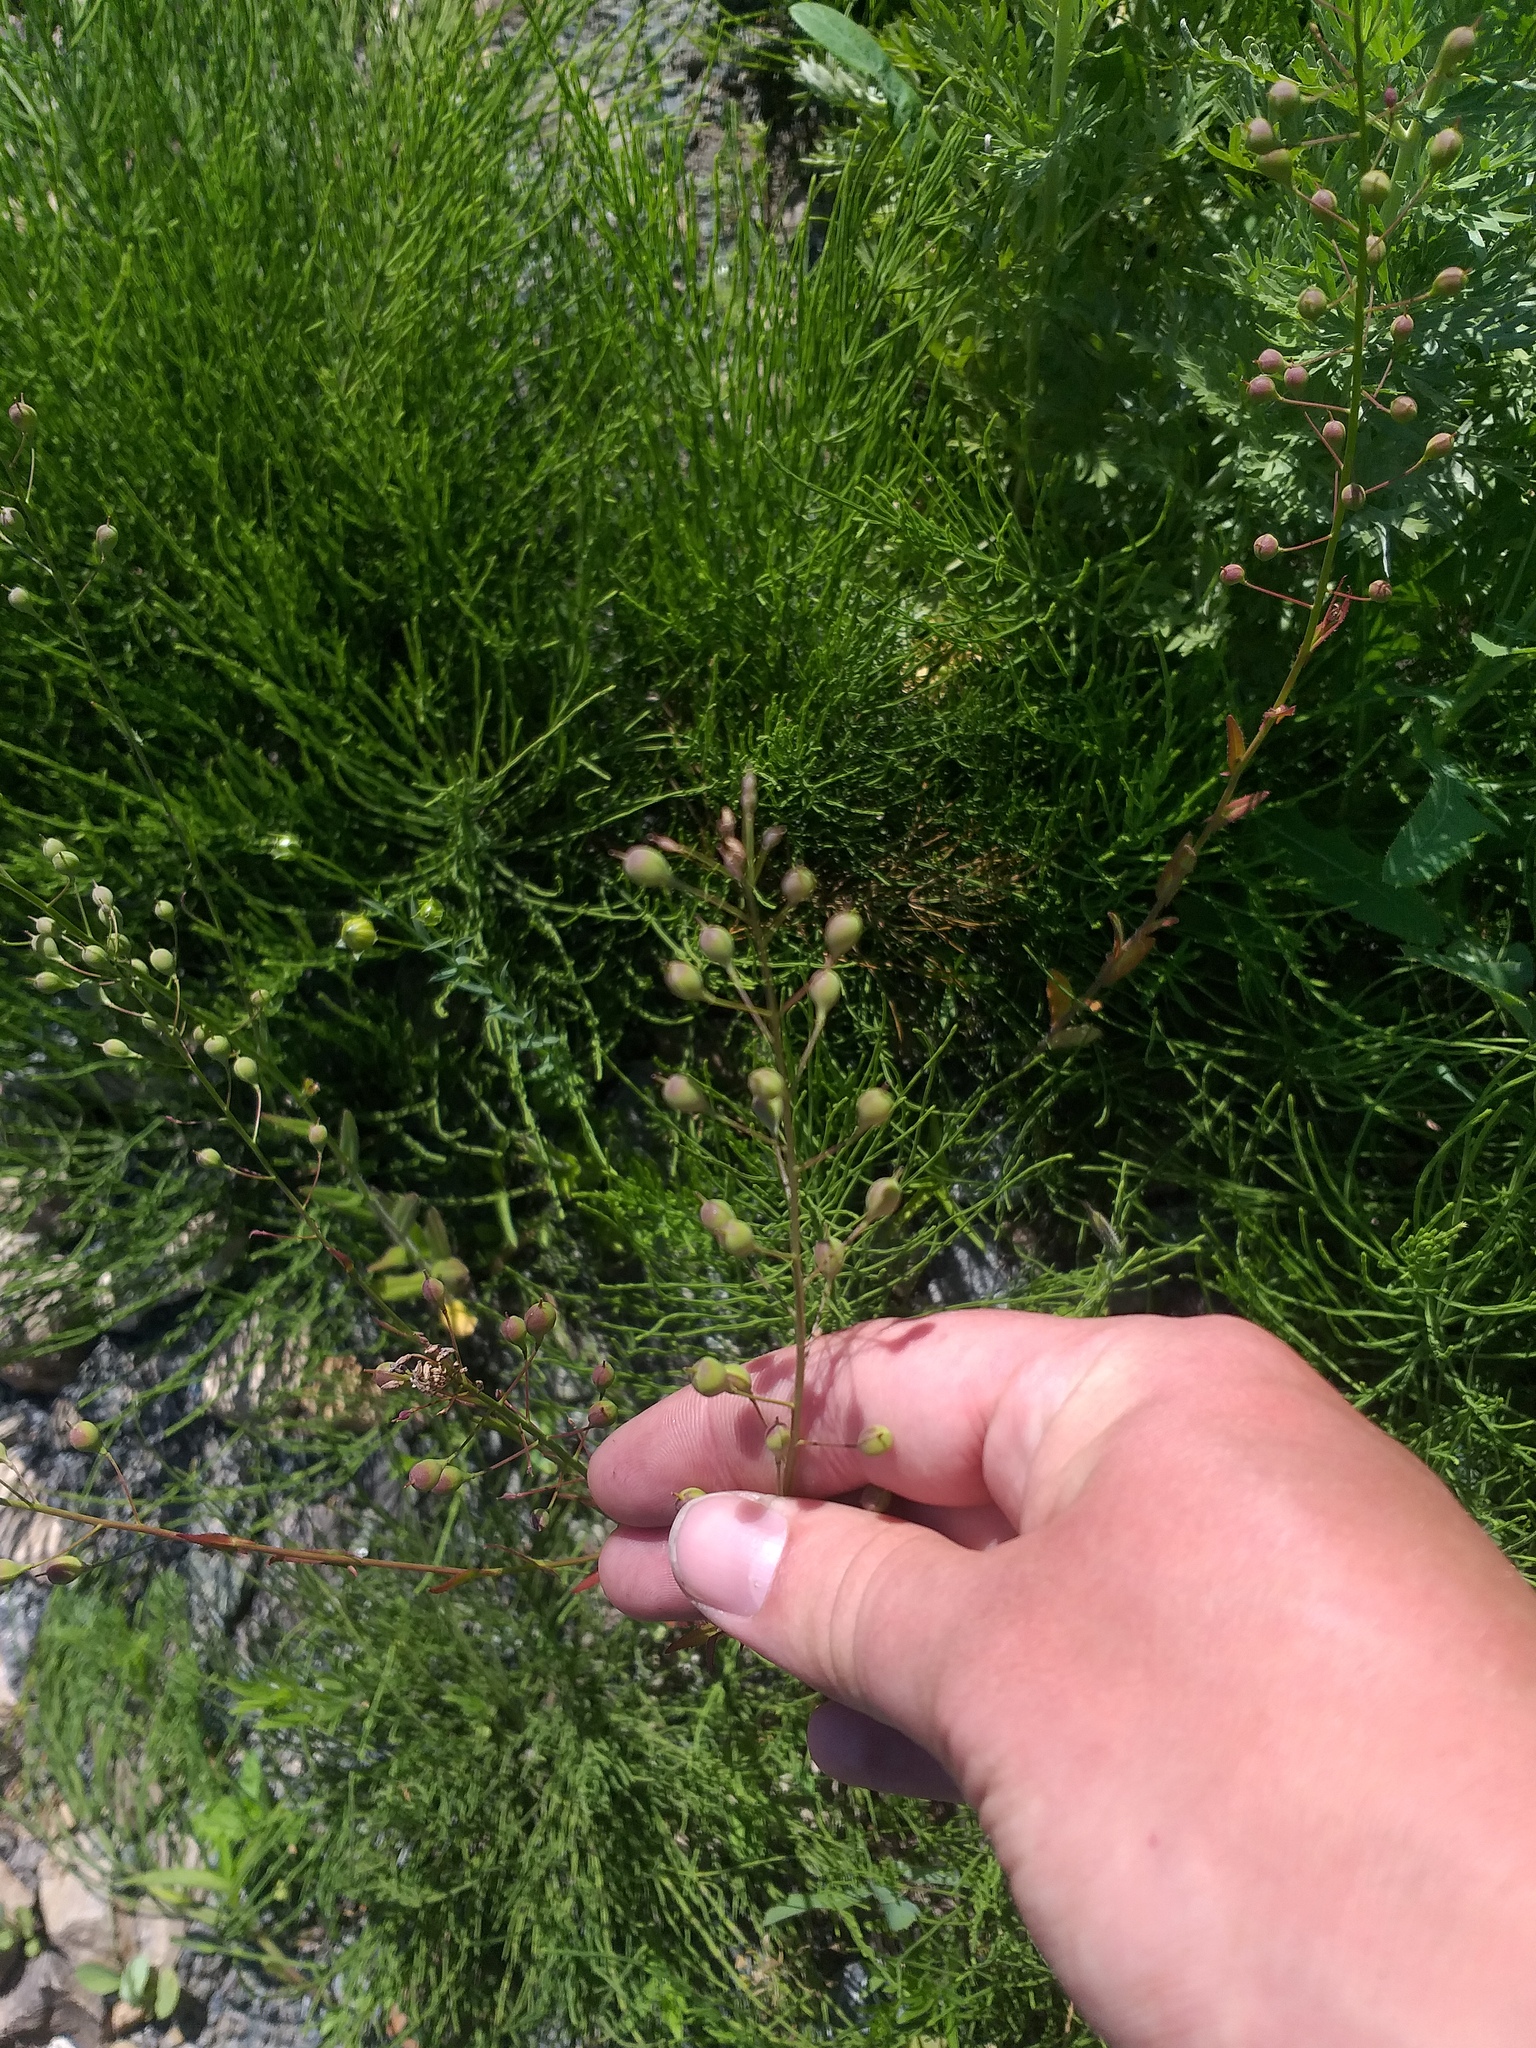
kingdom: Plantae
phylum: Tracheophyta
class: Magnoliopsida
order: Brassicales
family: Brassicaceae
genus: Camelina
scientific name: Camelina sativa
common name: Gold-of-pleasure
